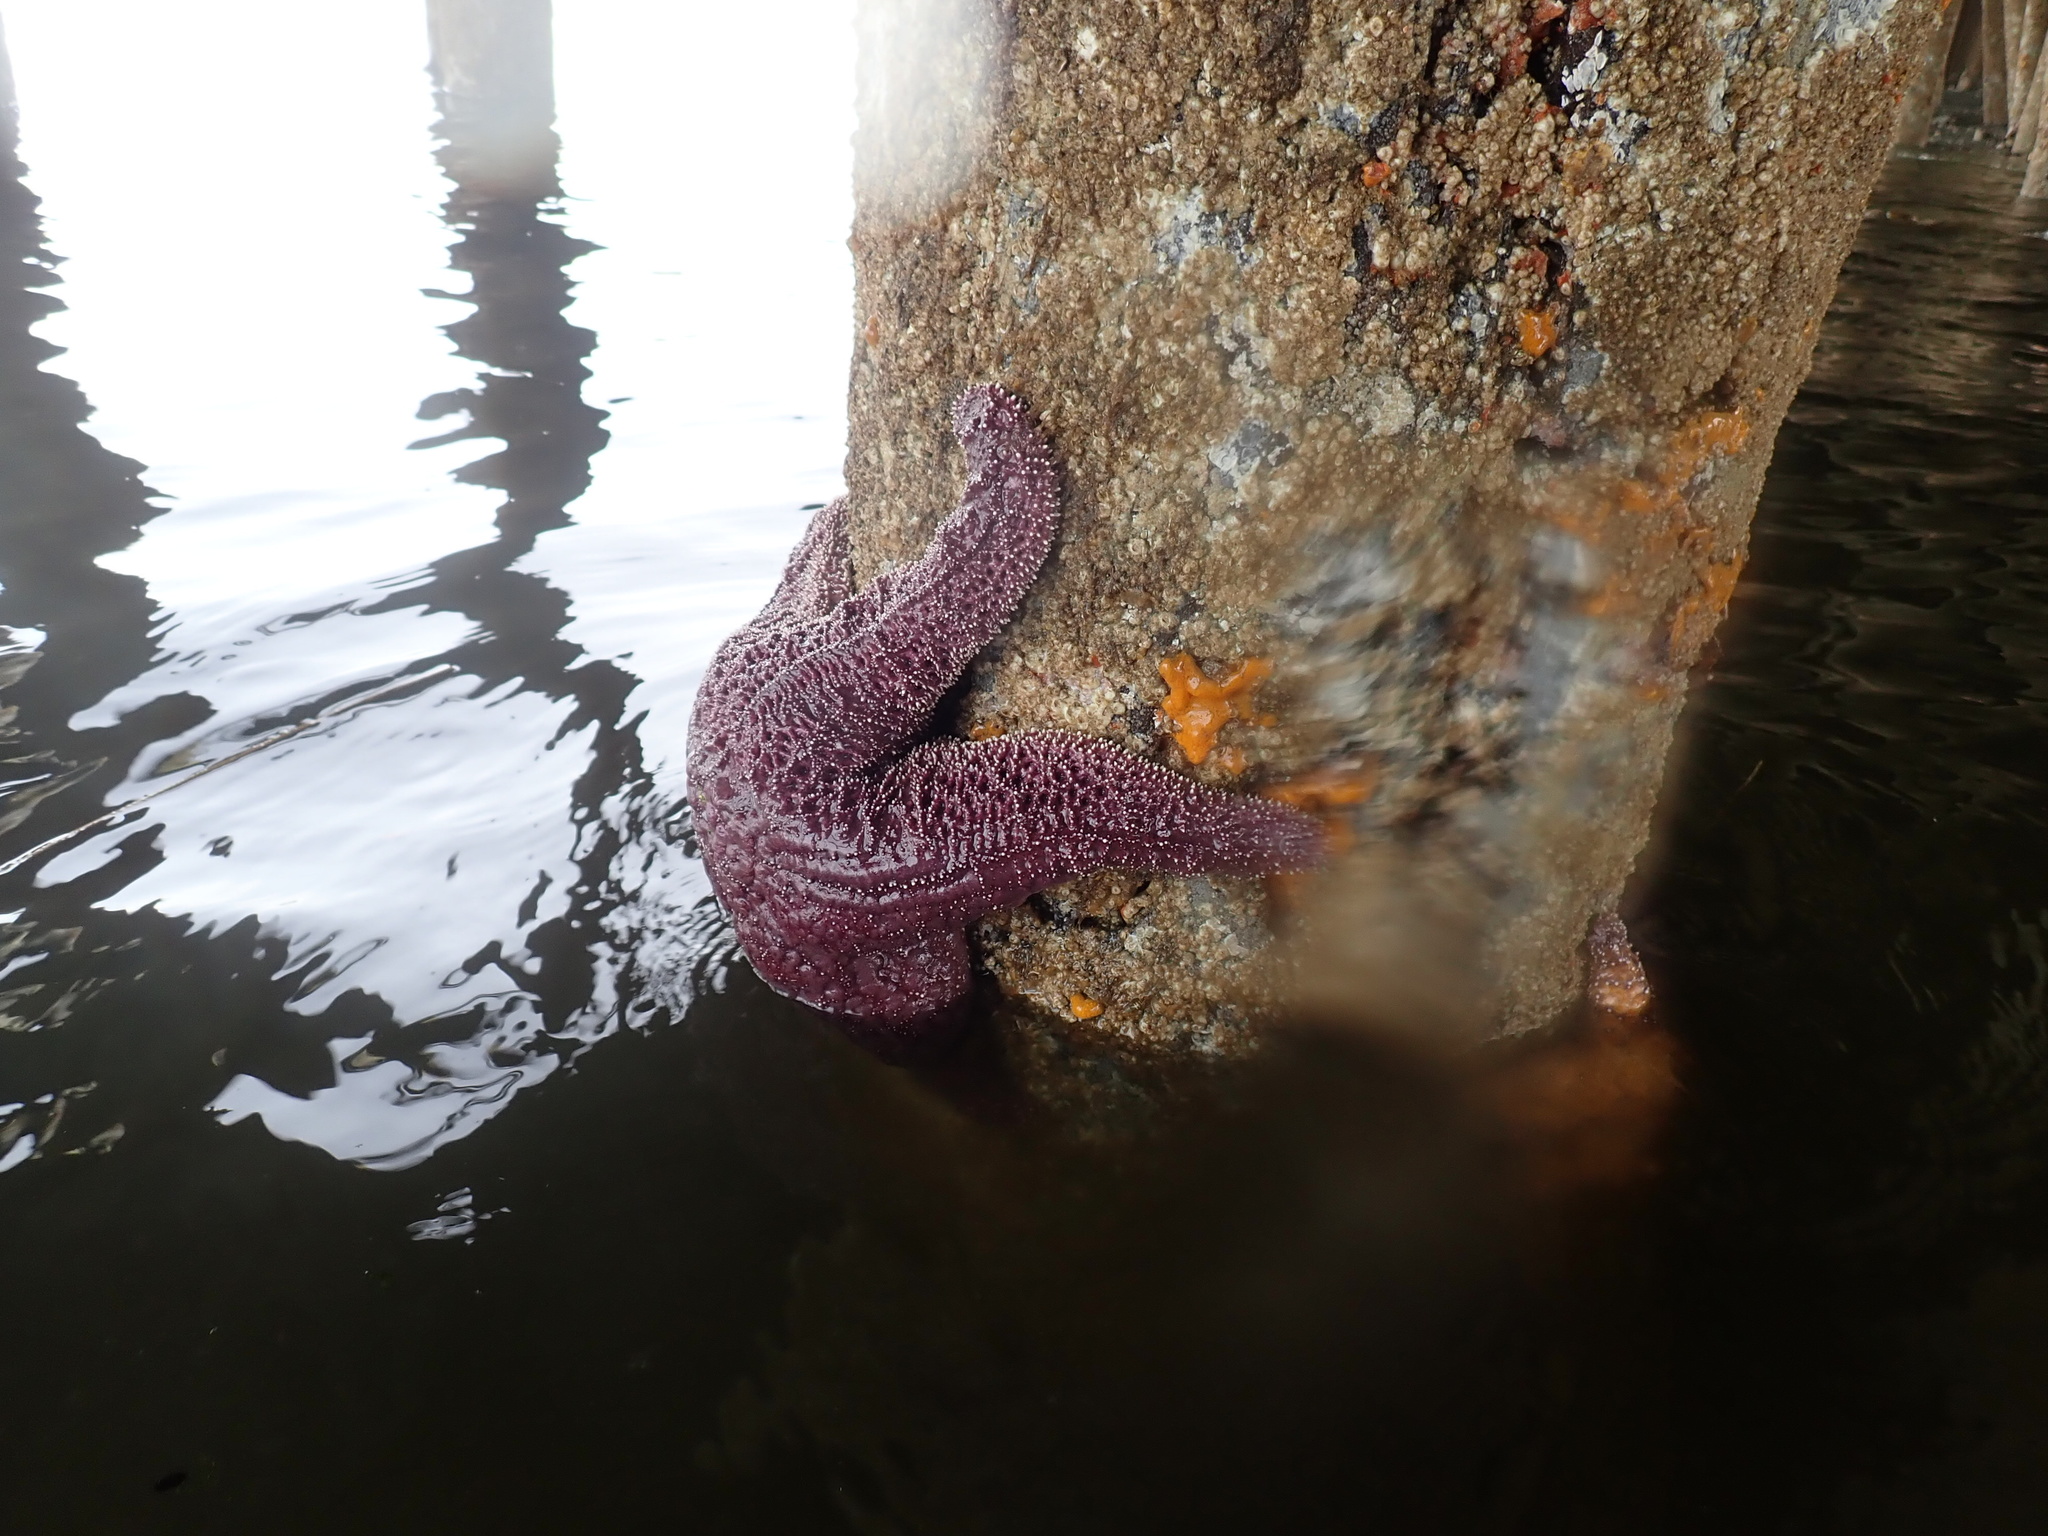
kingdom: Animalia
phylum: Echinodermata
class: Asteroidea
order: Forcipulatida
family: Asteriidae
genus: Pisaster
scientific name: Pisaster ochraceus
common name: Ochre stars
